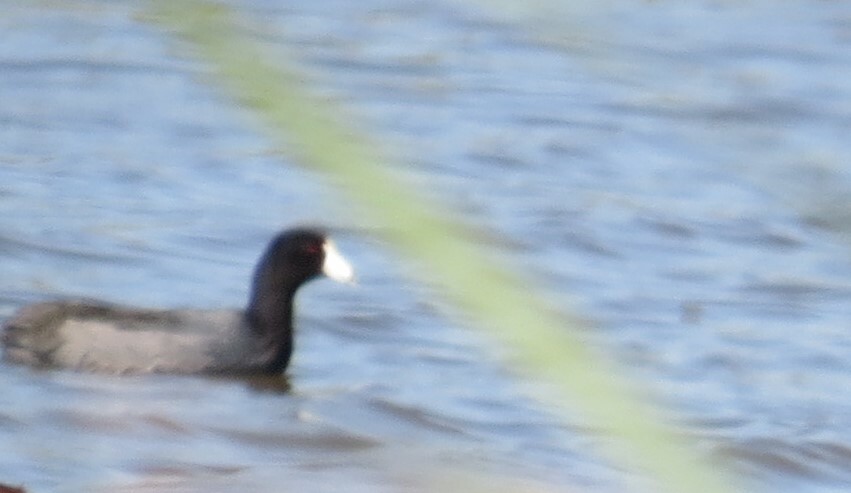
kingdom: Animalia
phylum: Chordata
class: Aves
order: Gruiformes
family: Rallidae
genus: Fulica
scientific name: Fulica americana
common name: American coot
